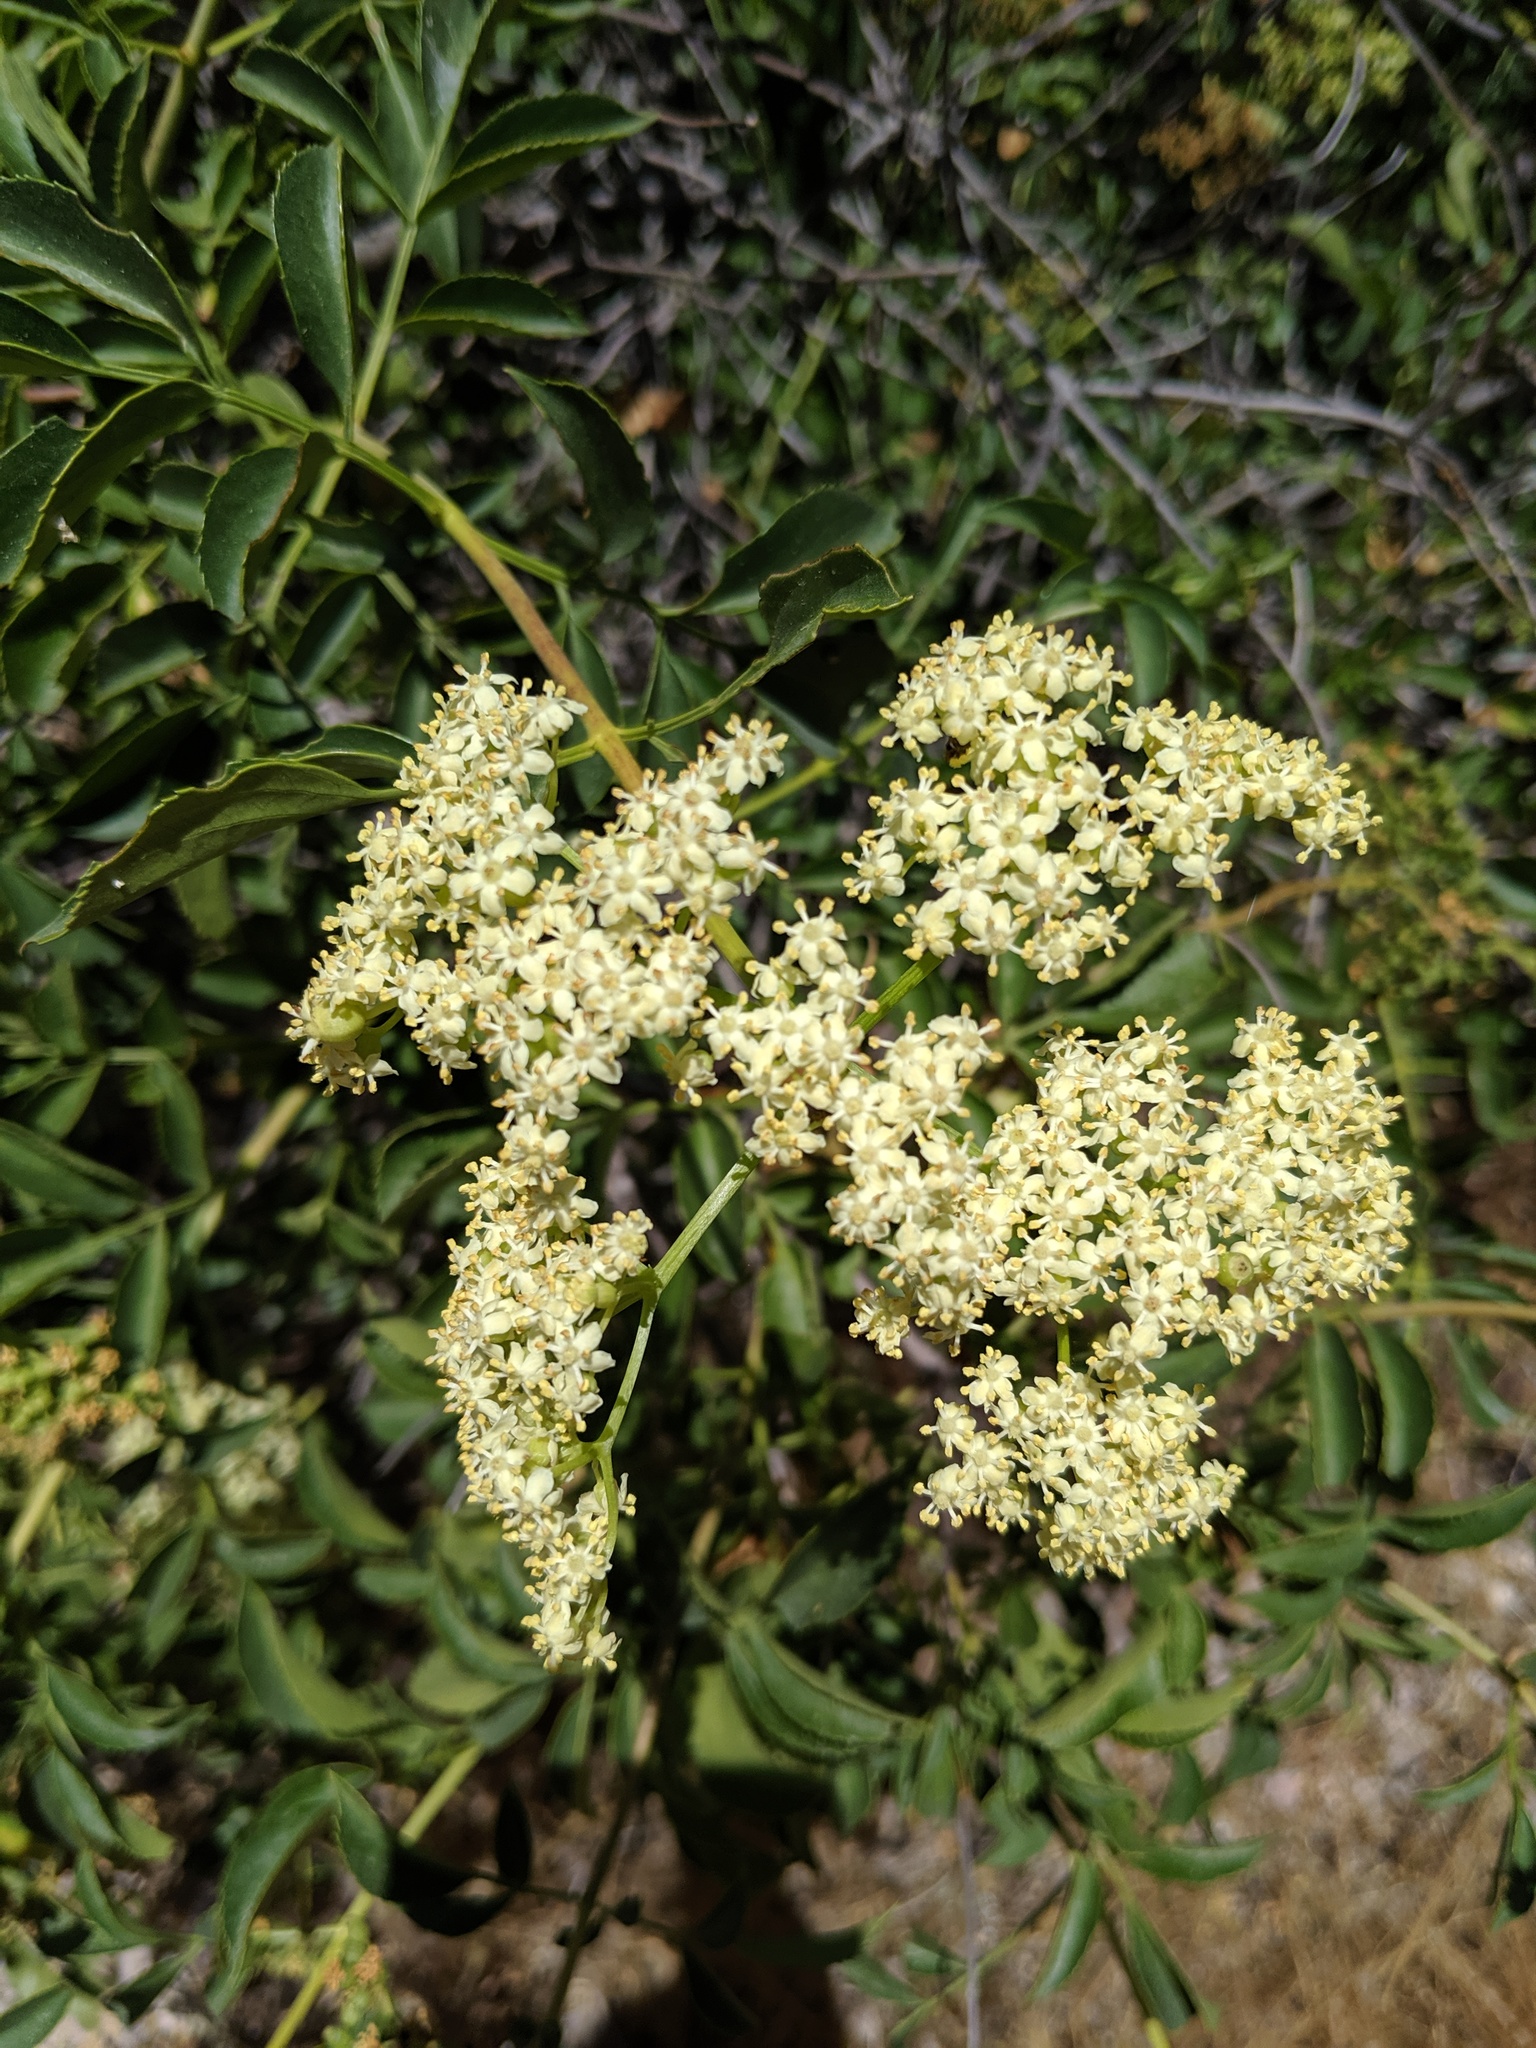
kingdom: Plantae
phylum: Tracheophyta
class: Magnoliopsida
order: Dipsacales
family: Viburnaceae
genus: Sambucus
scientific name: Sambucus cerulea
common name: Blue elder
